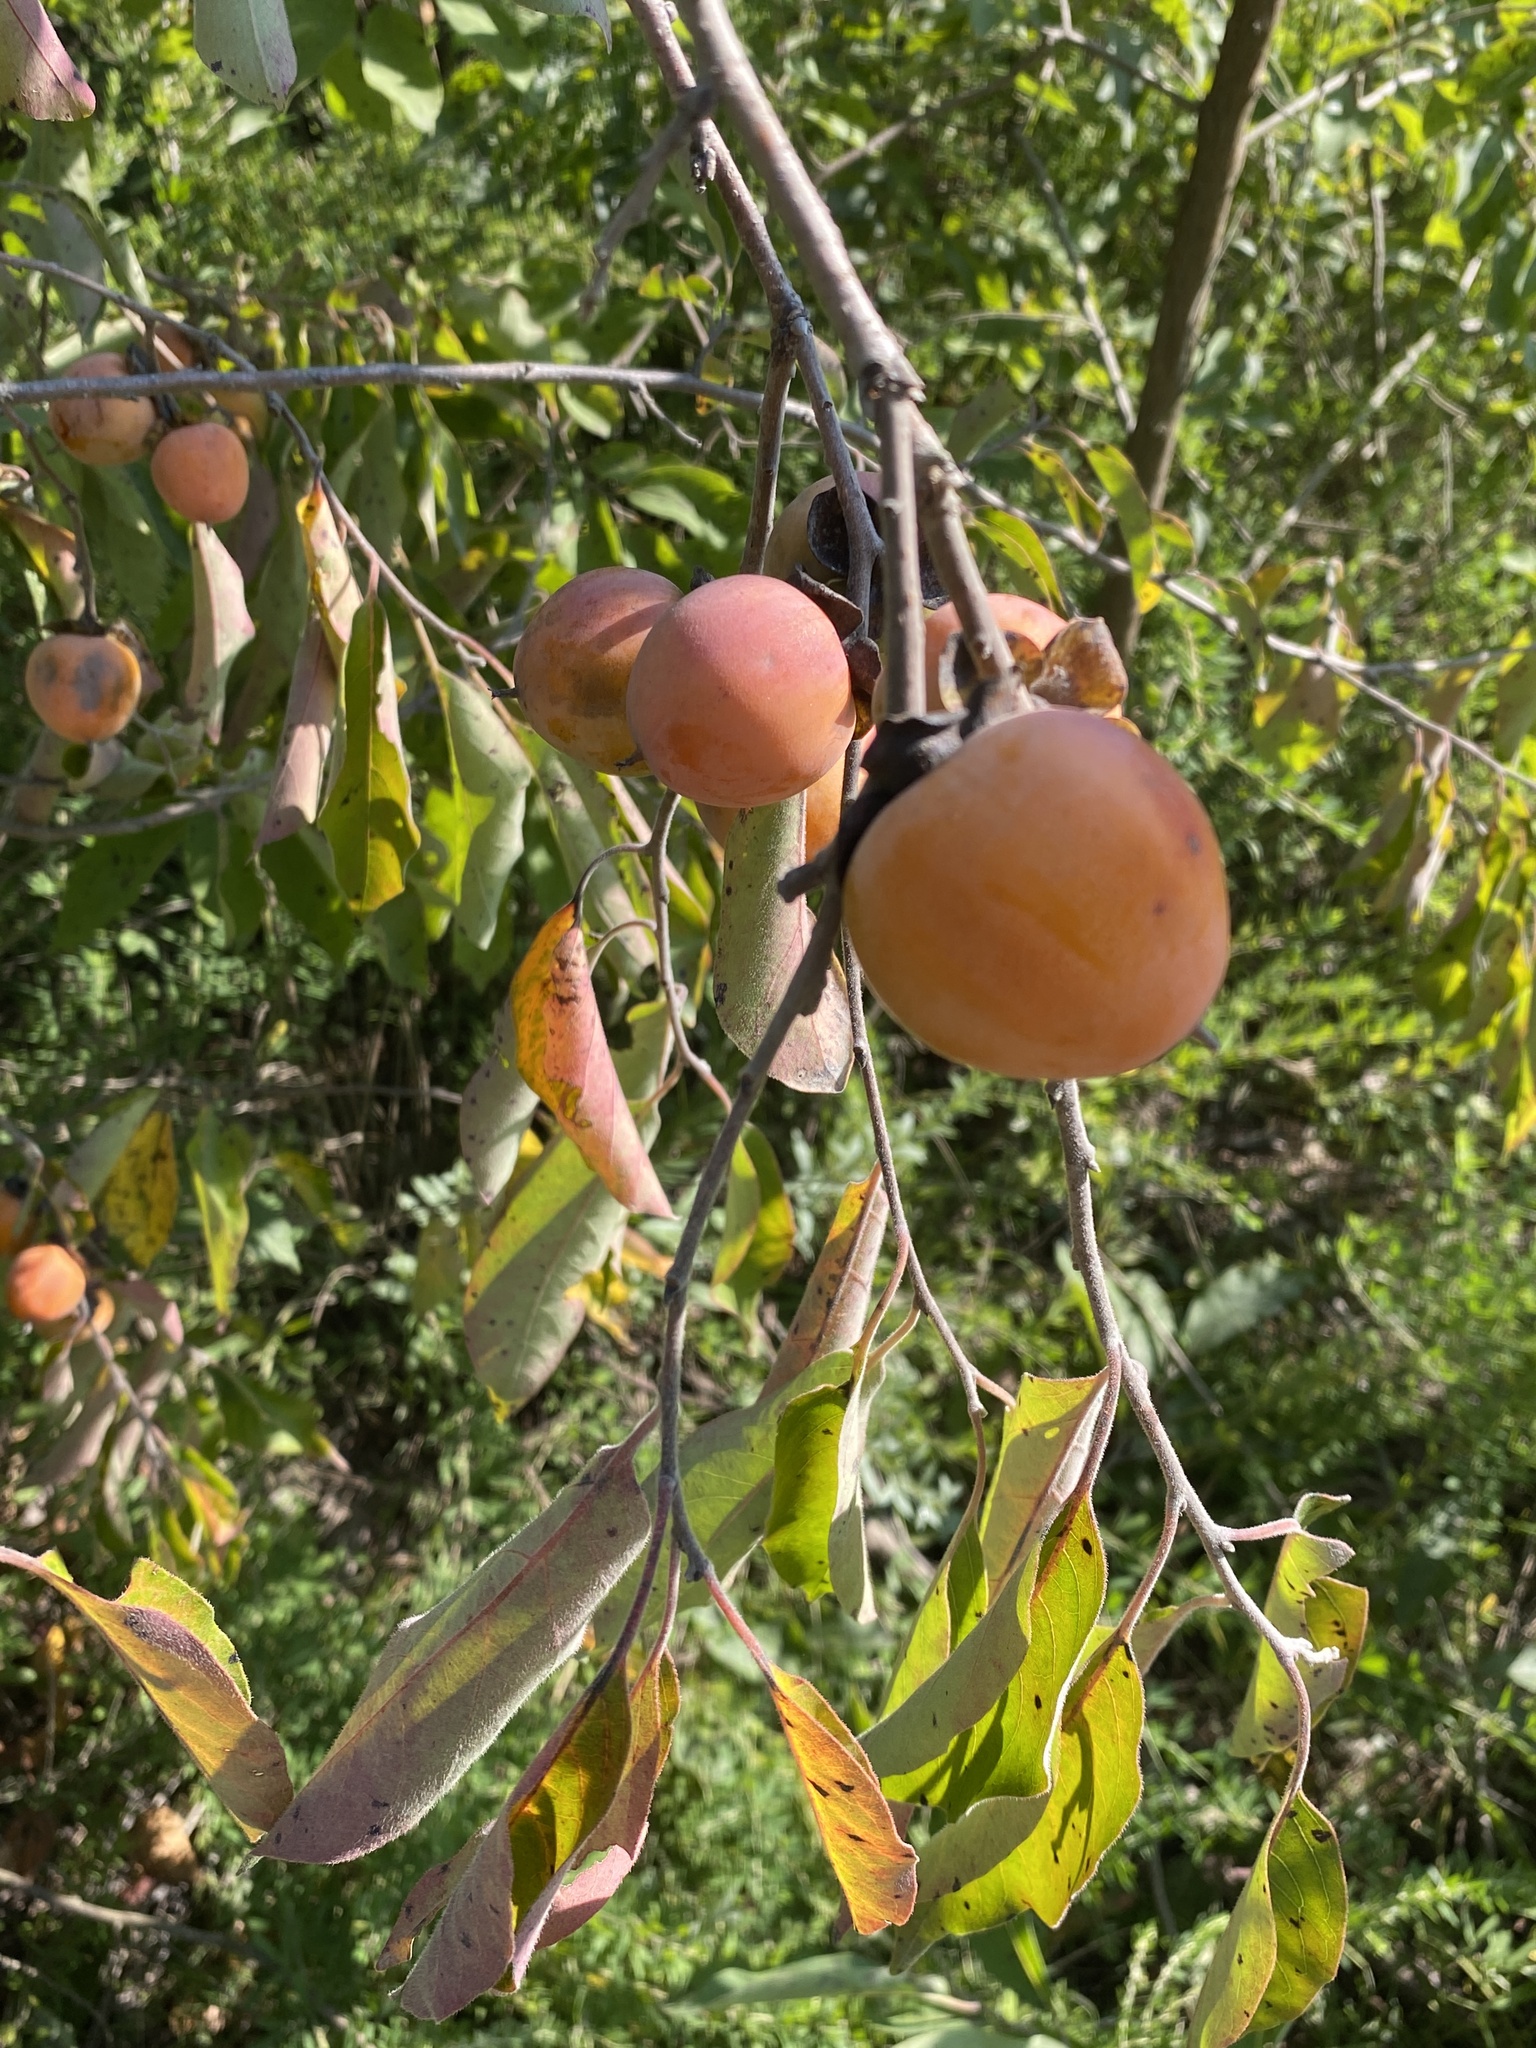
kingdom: Plantae
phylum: Tracheophyta
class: Magnoliopsida
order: Ericales
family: Ebenaceae
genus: Diospyros
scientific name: Diospyros virginiana
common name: Persimmon
